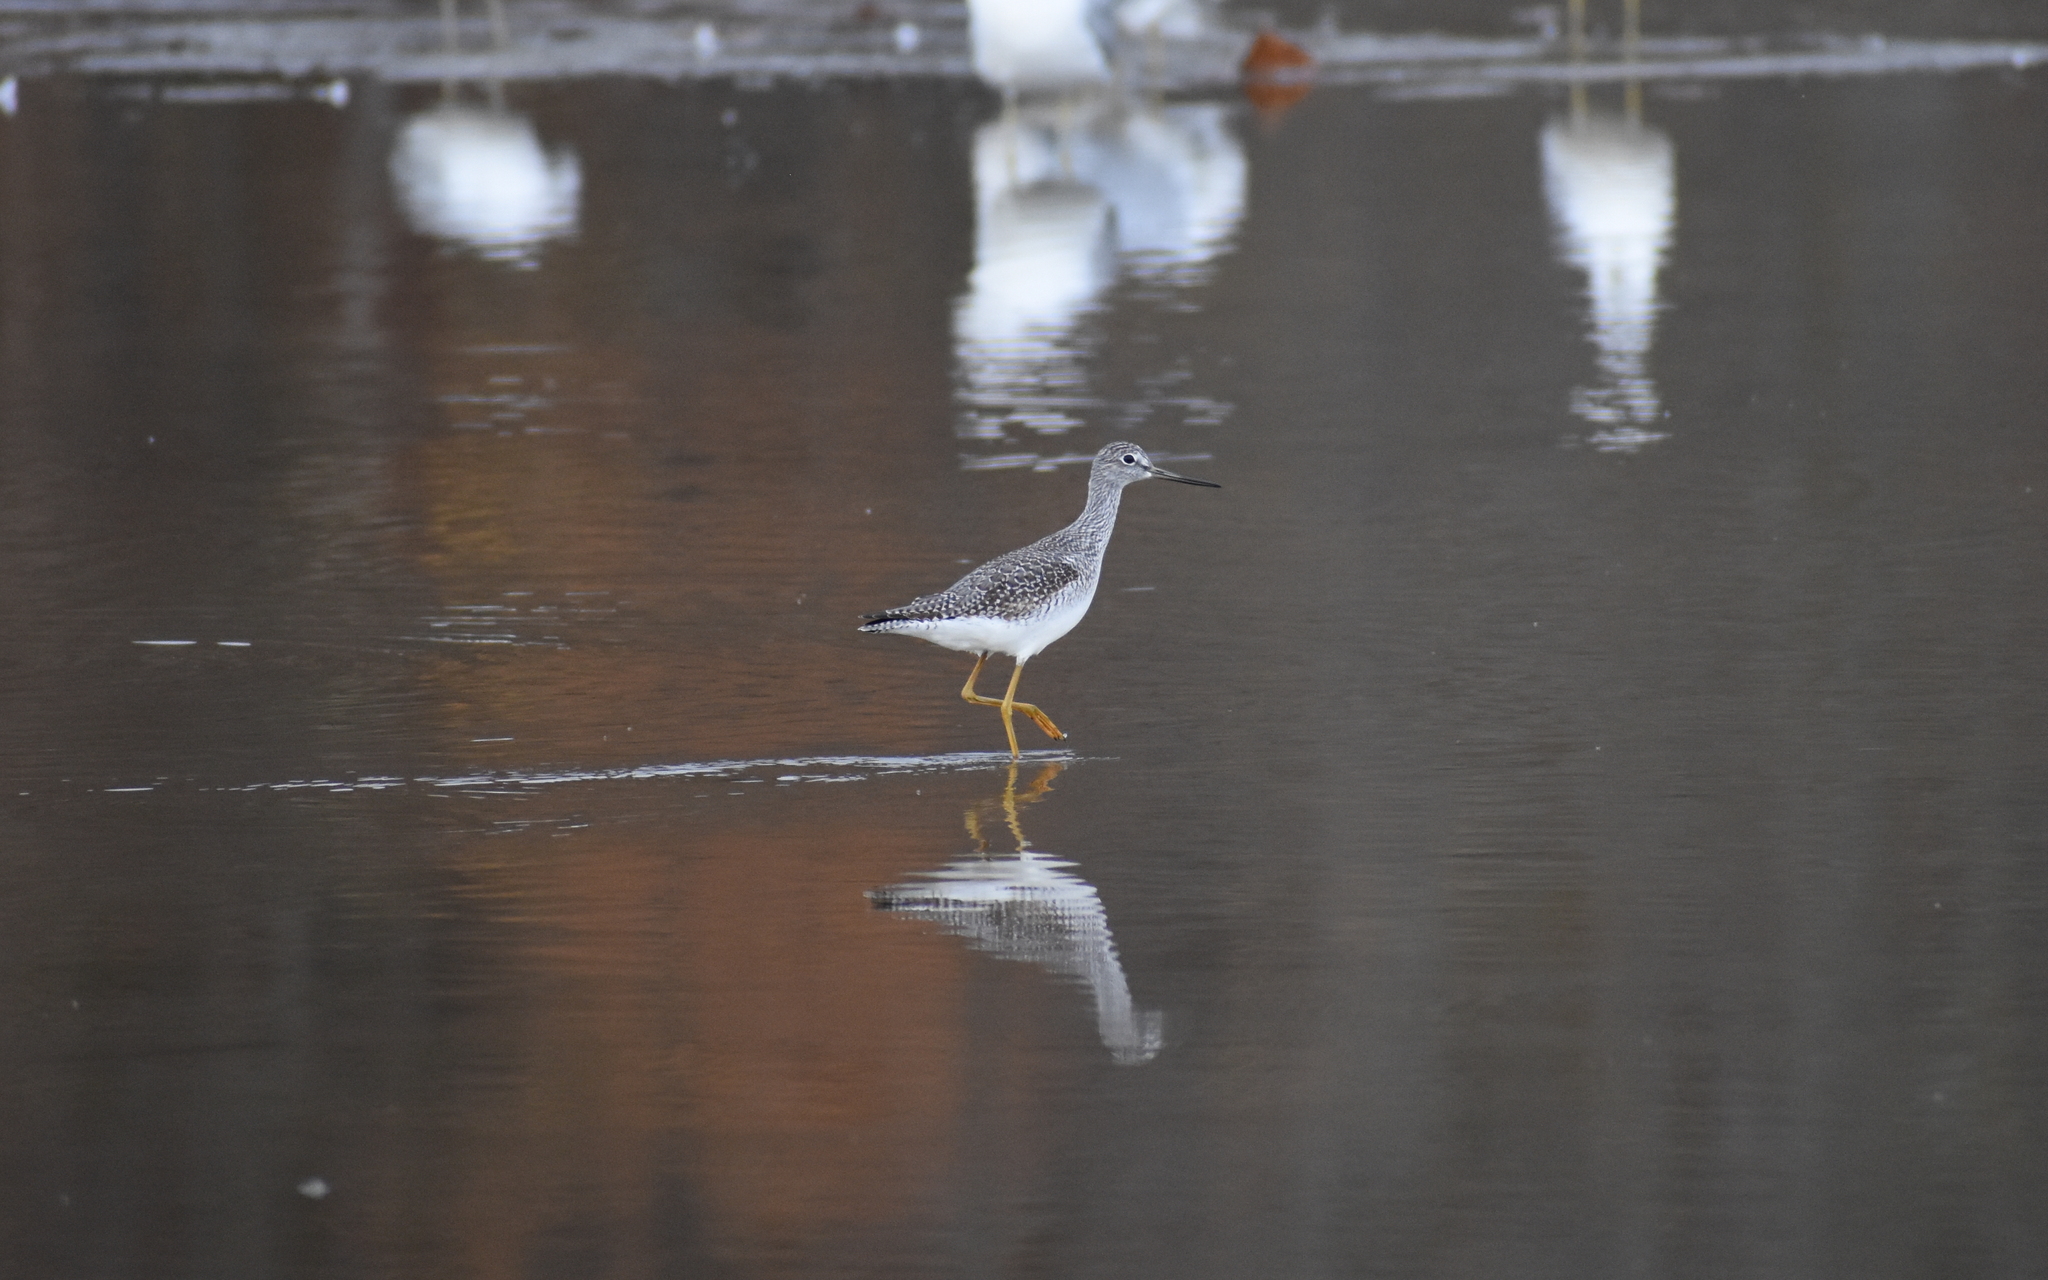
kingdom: Animalia
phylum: Chordata
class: Aves
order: Charadriiformes
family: Scolopacidae
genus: Tringa
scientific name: Tringa melanoleuca
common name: Greater yellowlegs
